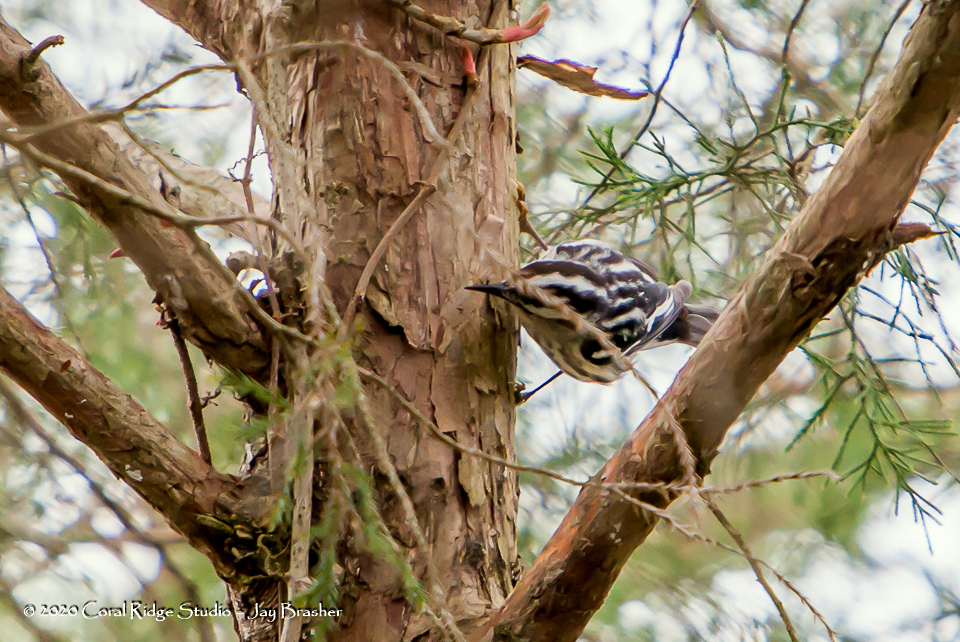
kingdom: Animalia
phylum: Chordata
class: Aves
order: Passeriformes
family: Parulidae
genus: Mniotilta
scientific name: Mniotilta varia
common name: Black-and-white warbler
